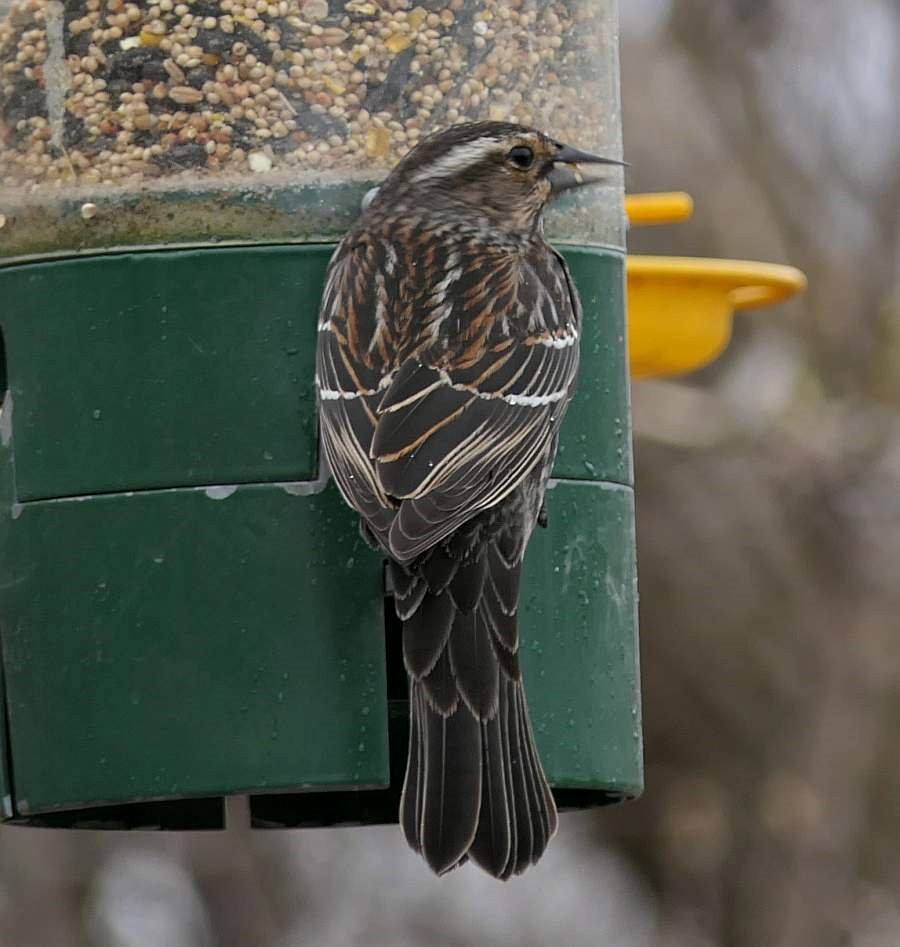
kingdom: Animalia
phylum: Chordata
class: Aves
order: Passeriformes
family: Icteridae
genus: Agelaius
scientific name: Agelaius phoeniceus
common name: Red-winged blackbird
